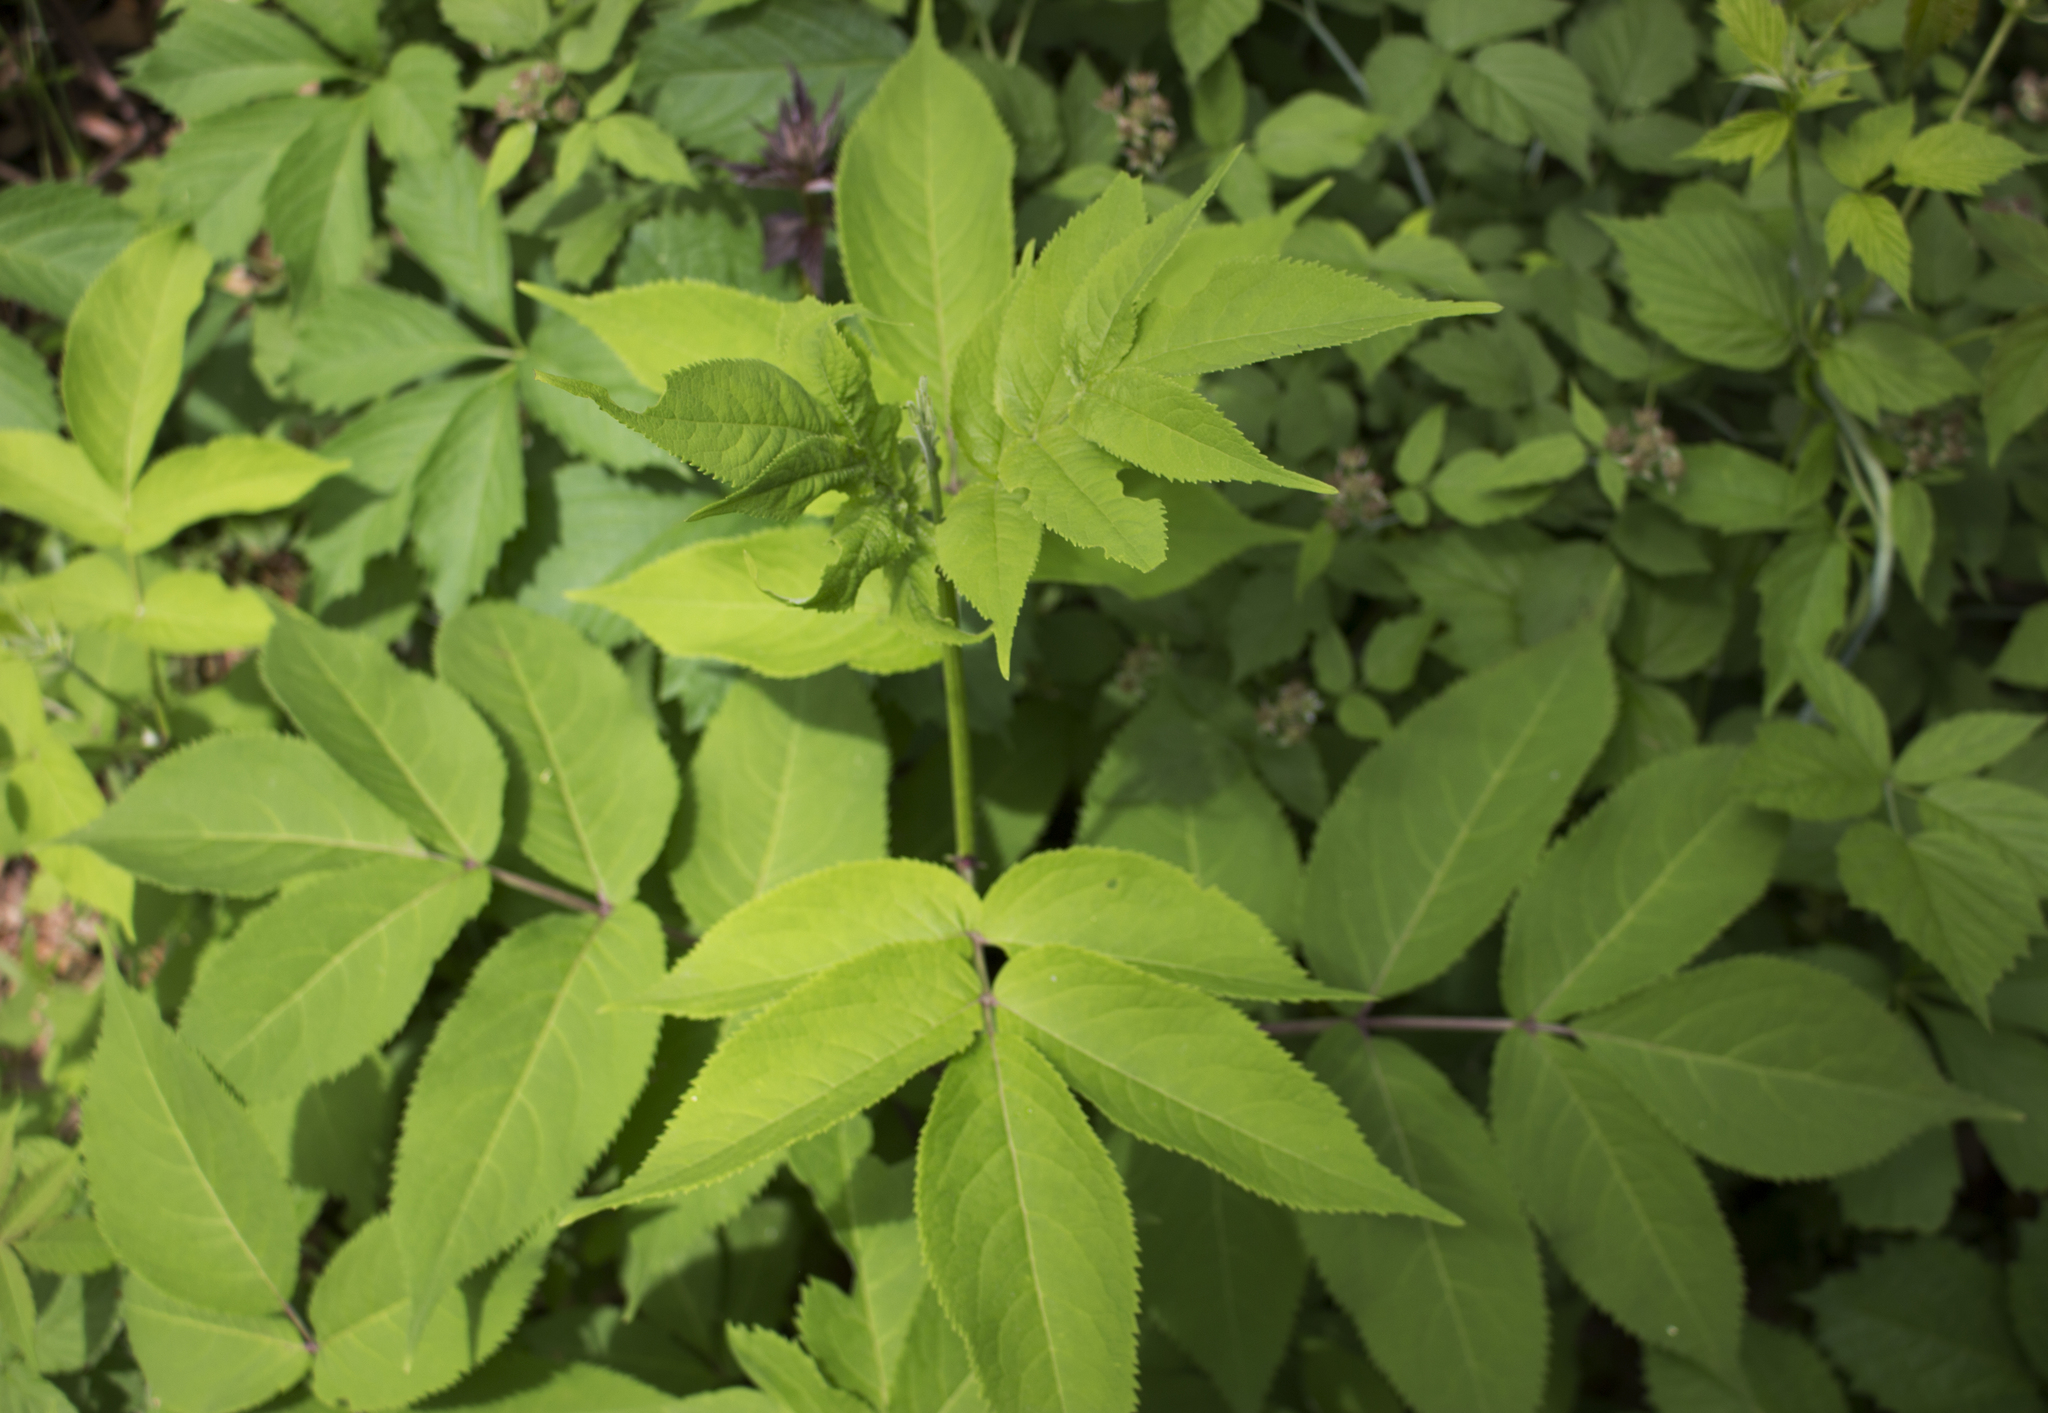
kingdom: Plantae
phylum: Tracheophyta
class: Magnoliopsida
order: Dipsacales
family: Viburnaceae
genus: Sambucus
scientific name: Sambucus racemosa
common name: Red-berried elder
